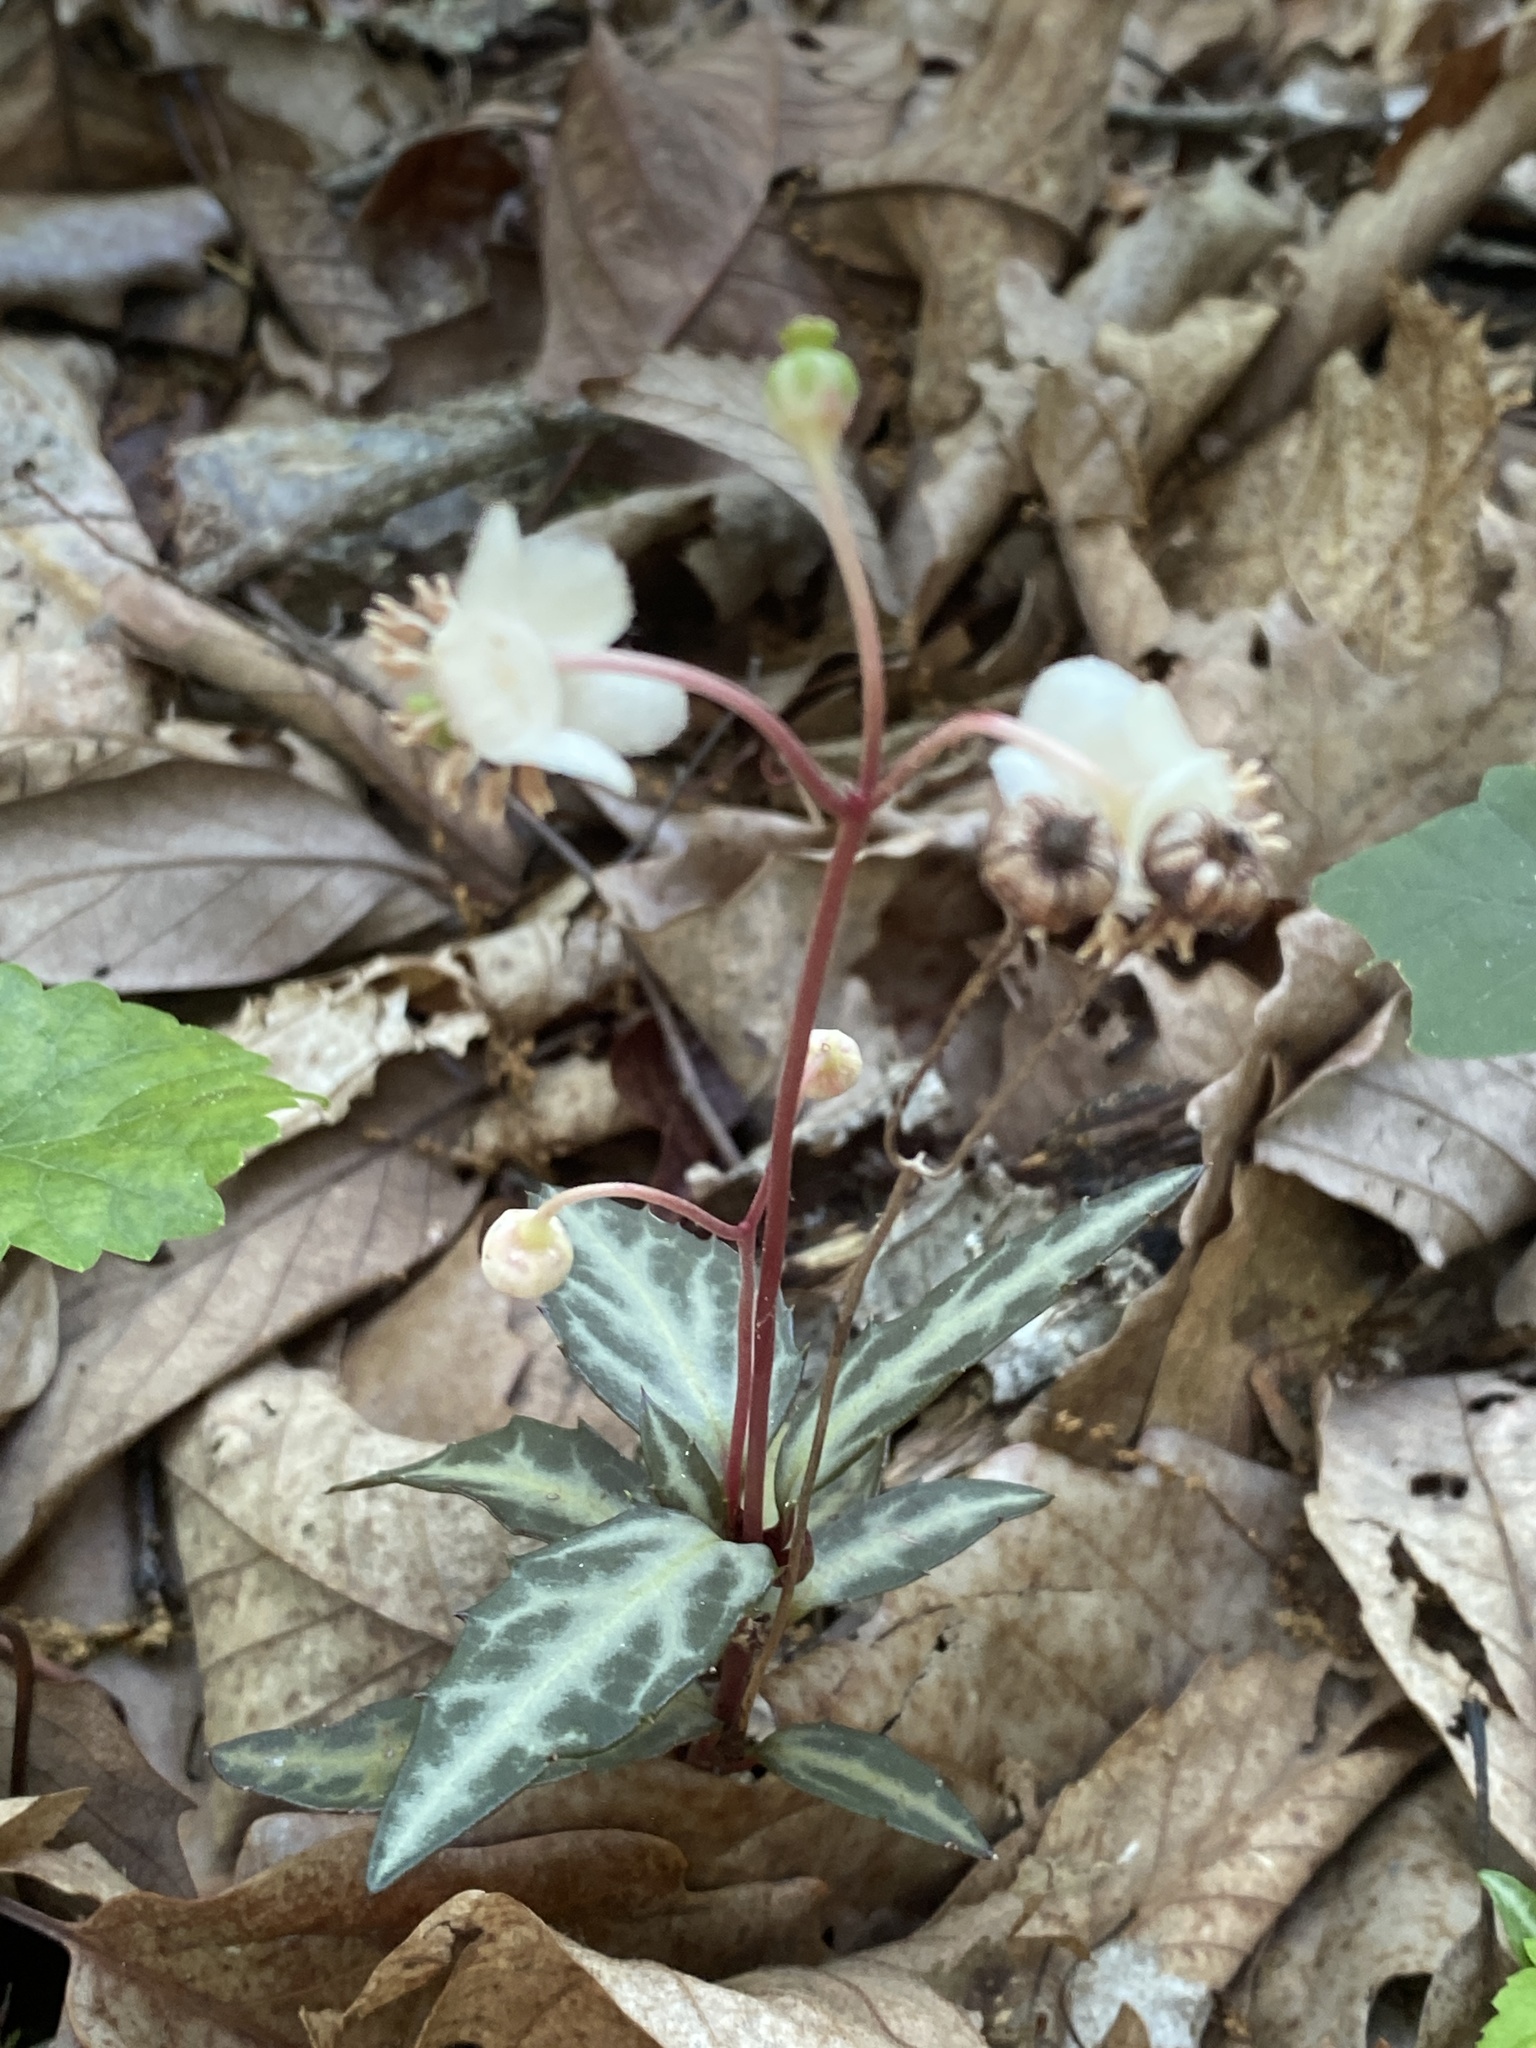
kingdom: Plantae
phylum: Tracheophyta
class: Magnoliopsida
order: Ericales
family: Ericaceae
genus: Chimaphila
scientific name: Chimaphila maculata
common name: Spotted pipsissewa
